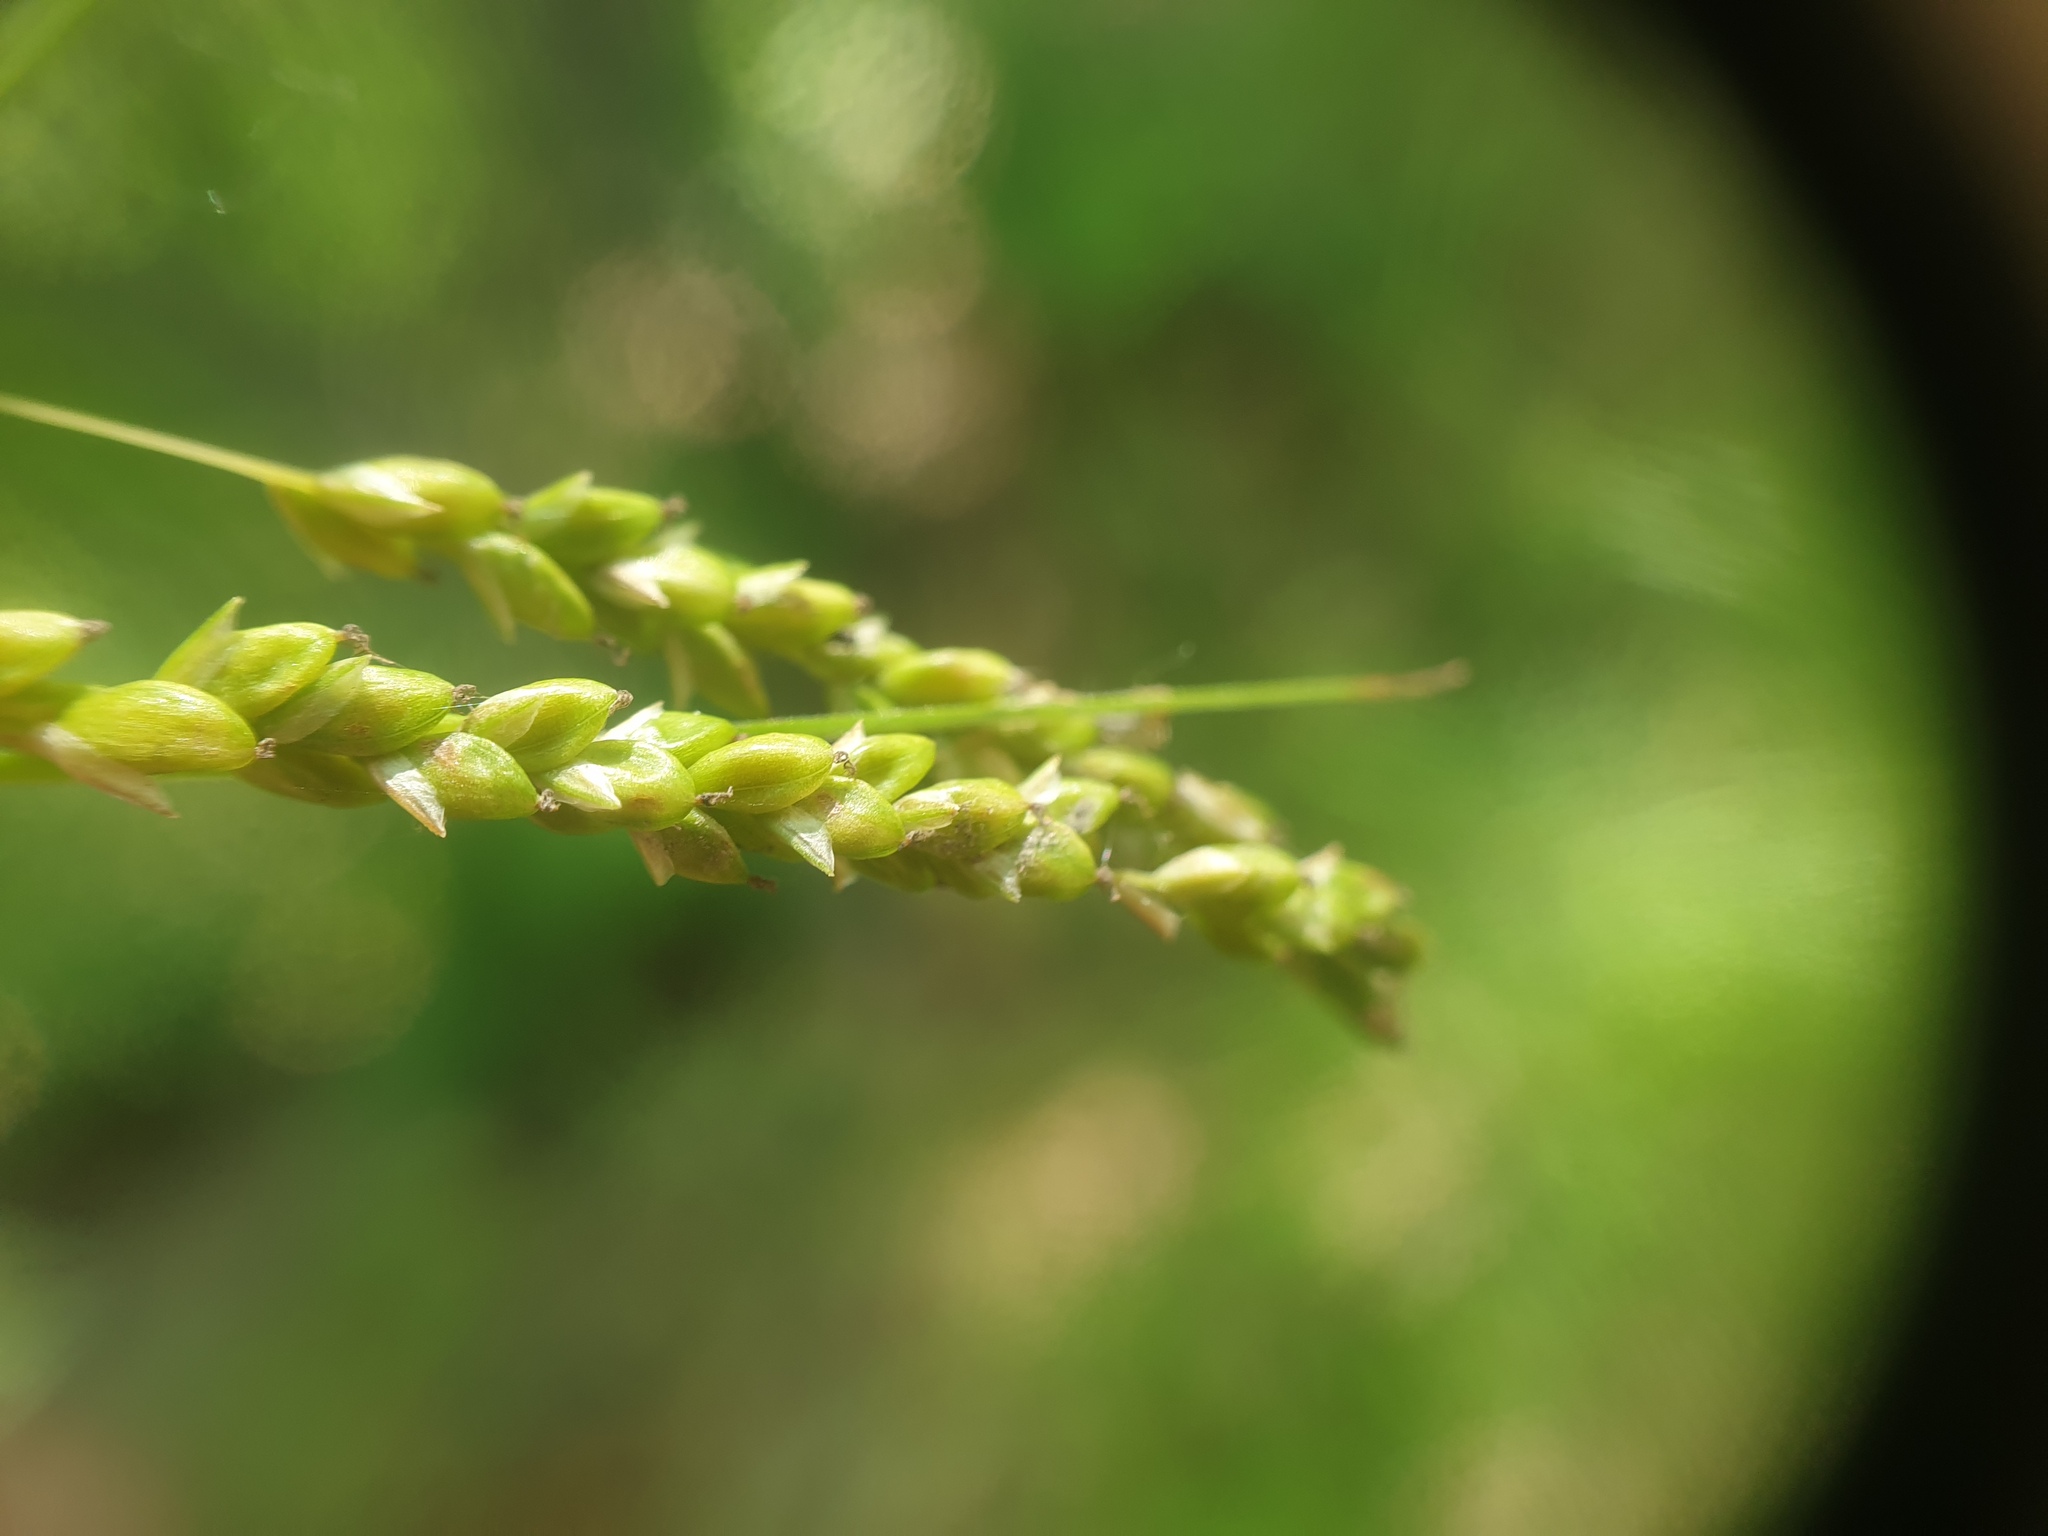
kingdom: Plantae
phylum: Tracheophyta
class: Liliopsida
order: Poales
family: Cyperaceae
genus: Carex
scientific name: Carex gracillima
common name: Graceful sedge
